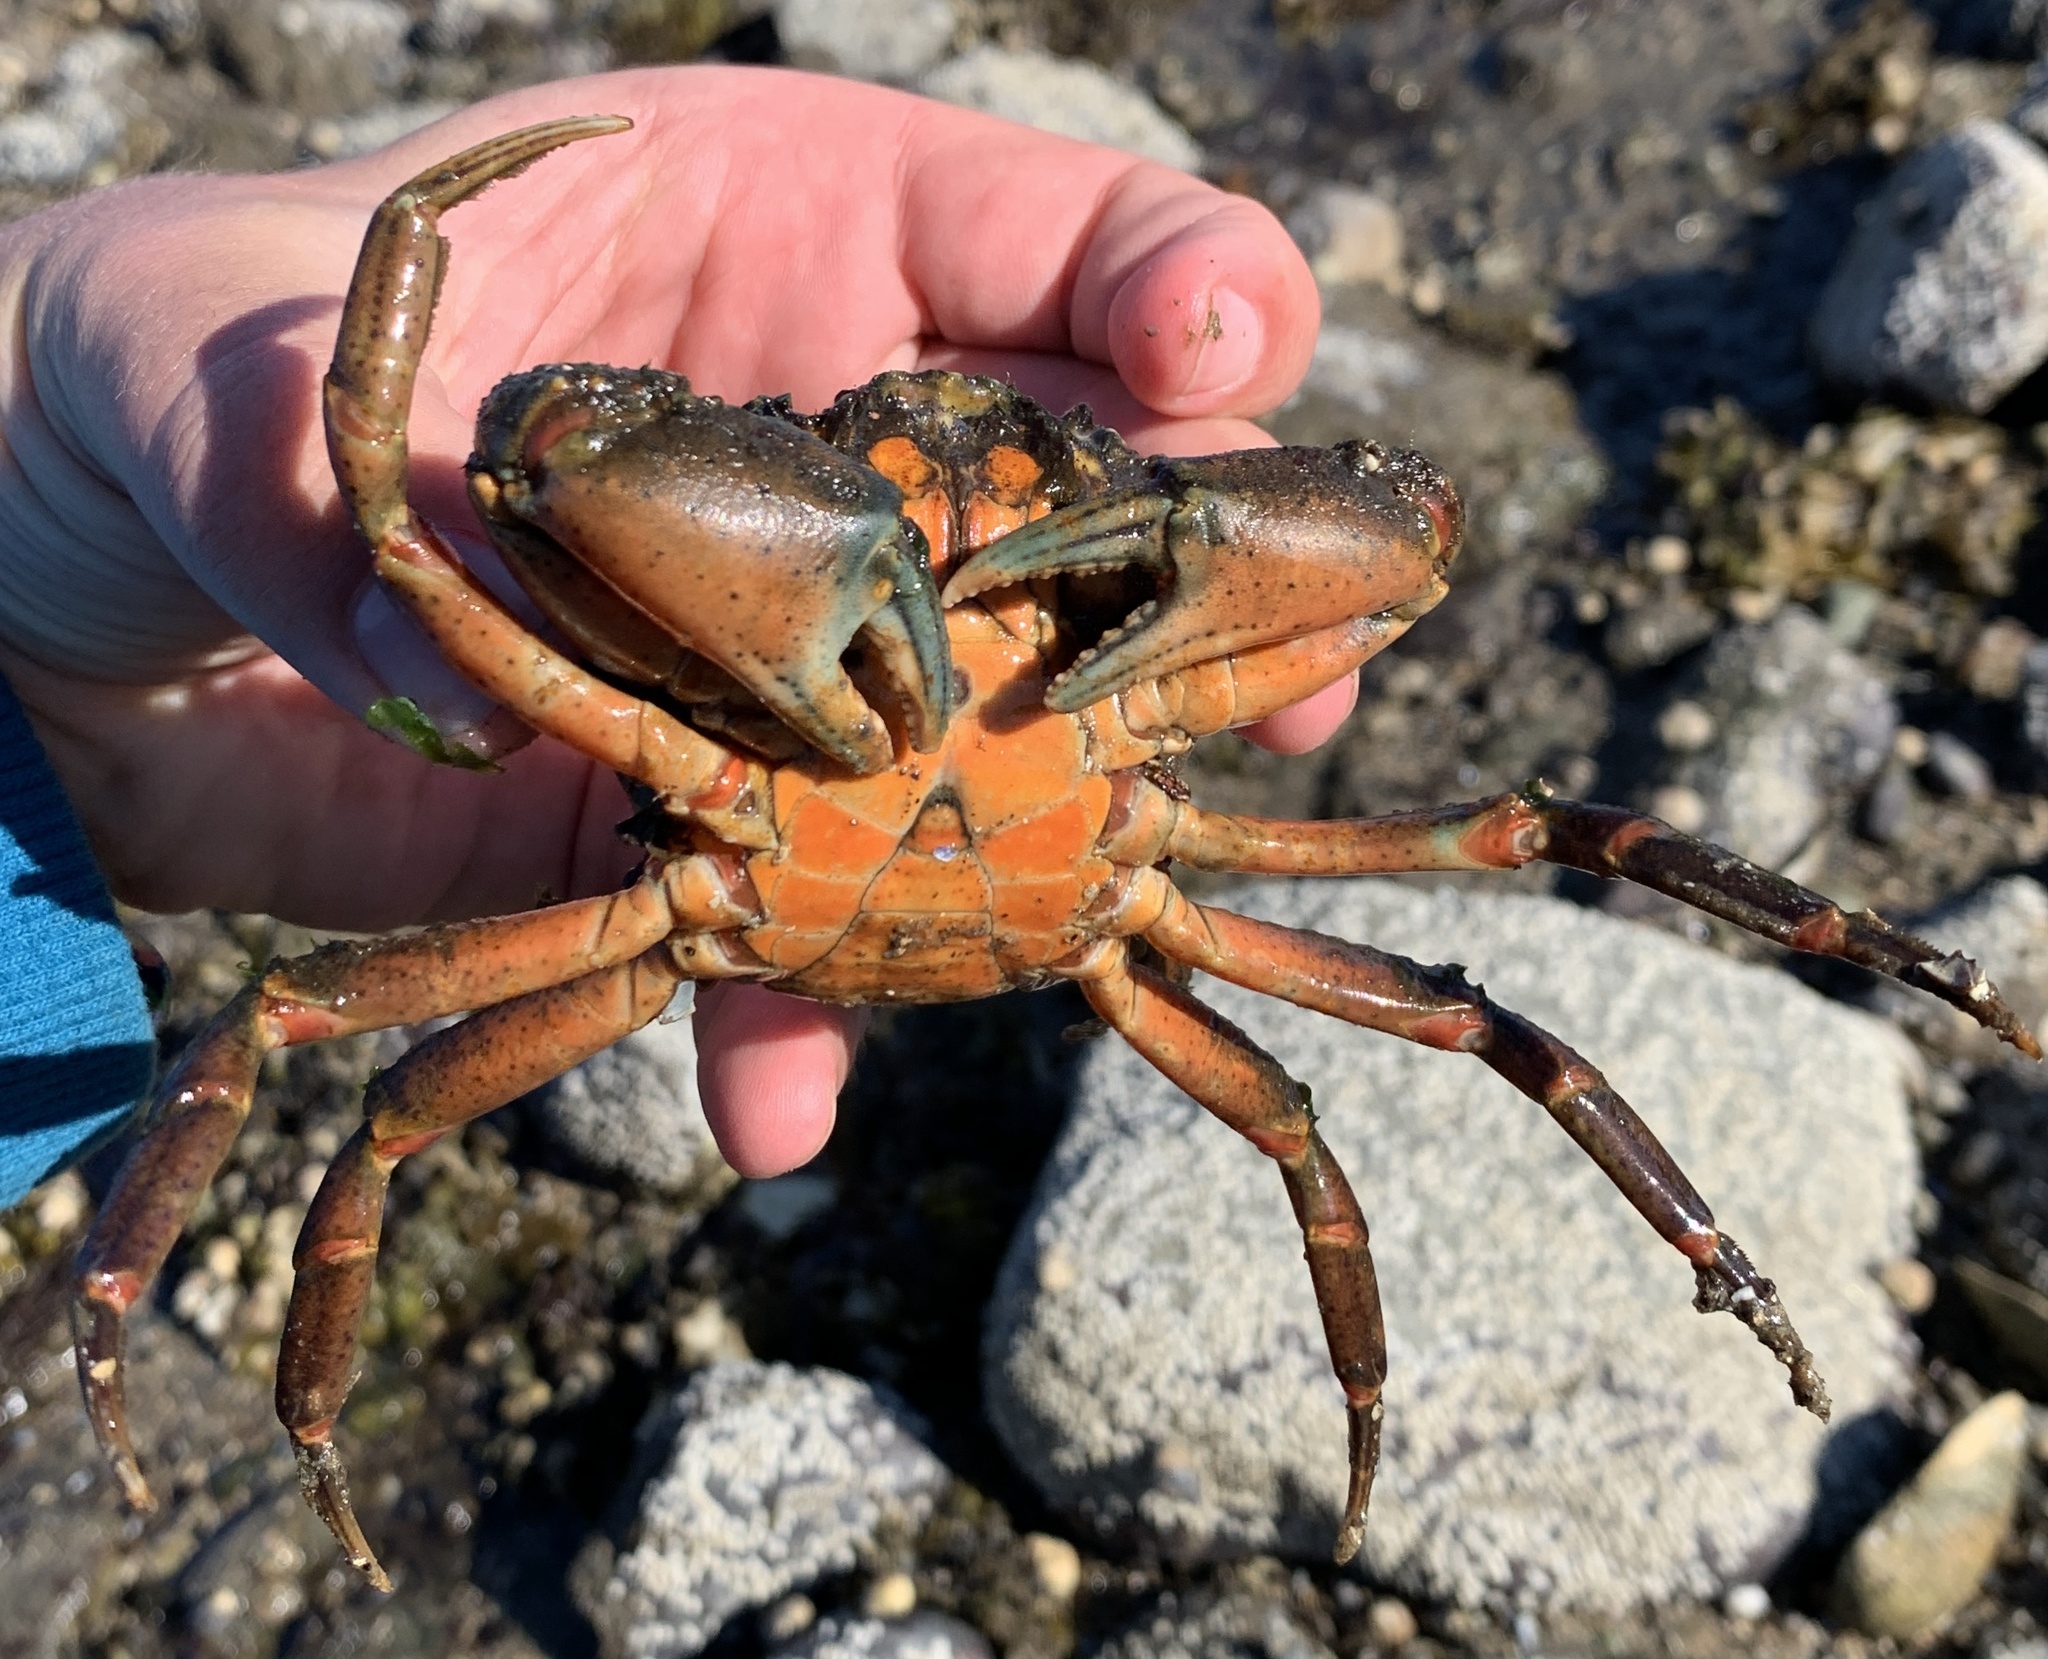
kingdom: Animalia
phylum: Arthropoda
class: Malacostraca
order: Decapoda
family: Carcinidae
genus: Carcinus
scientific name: Carcinus maenas
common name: European green crab
